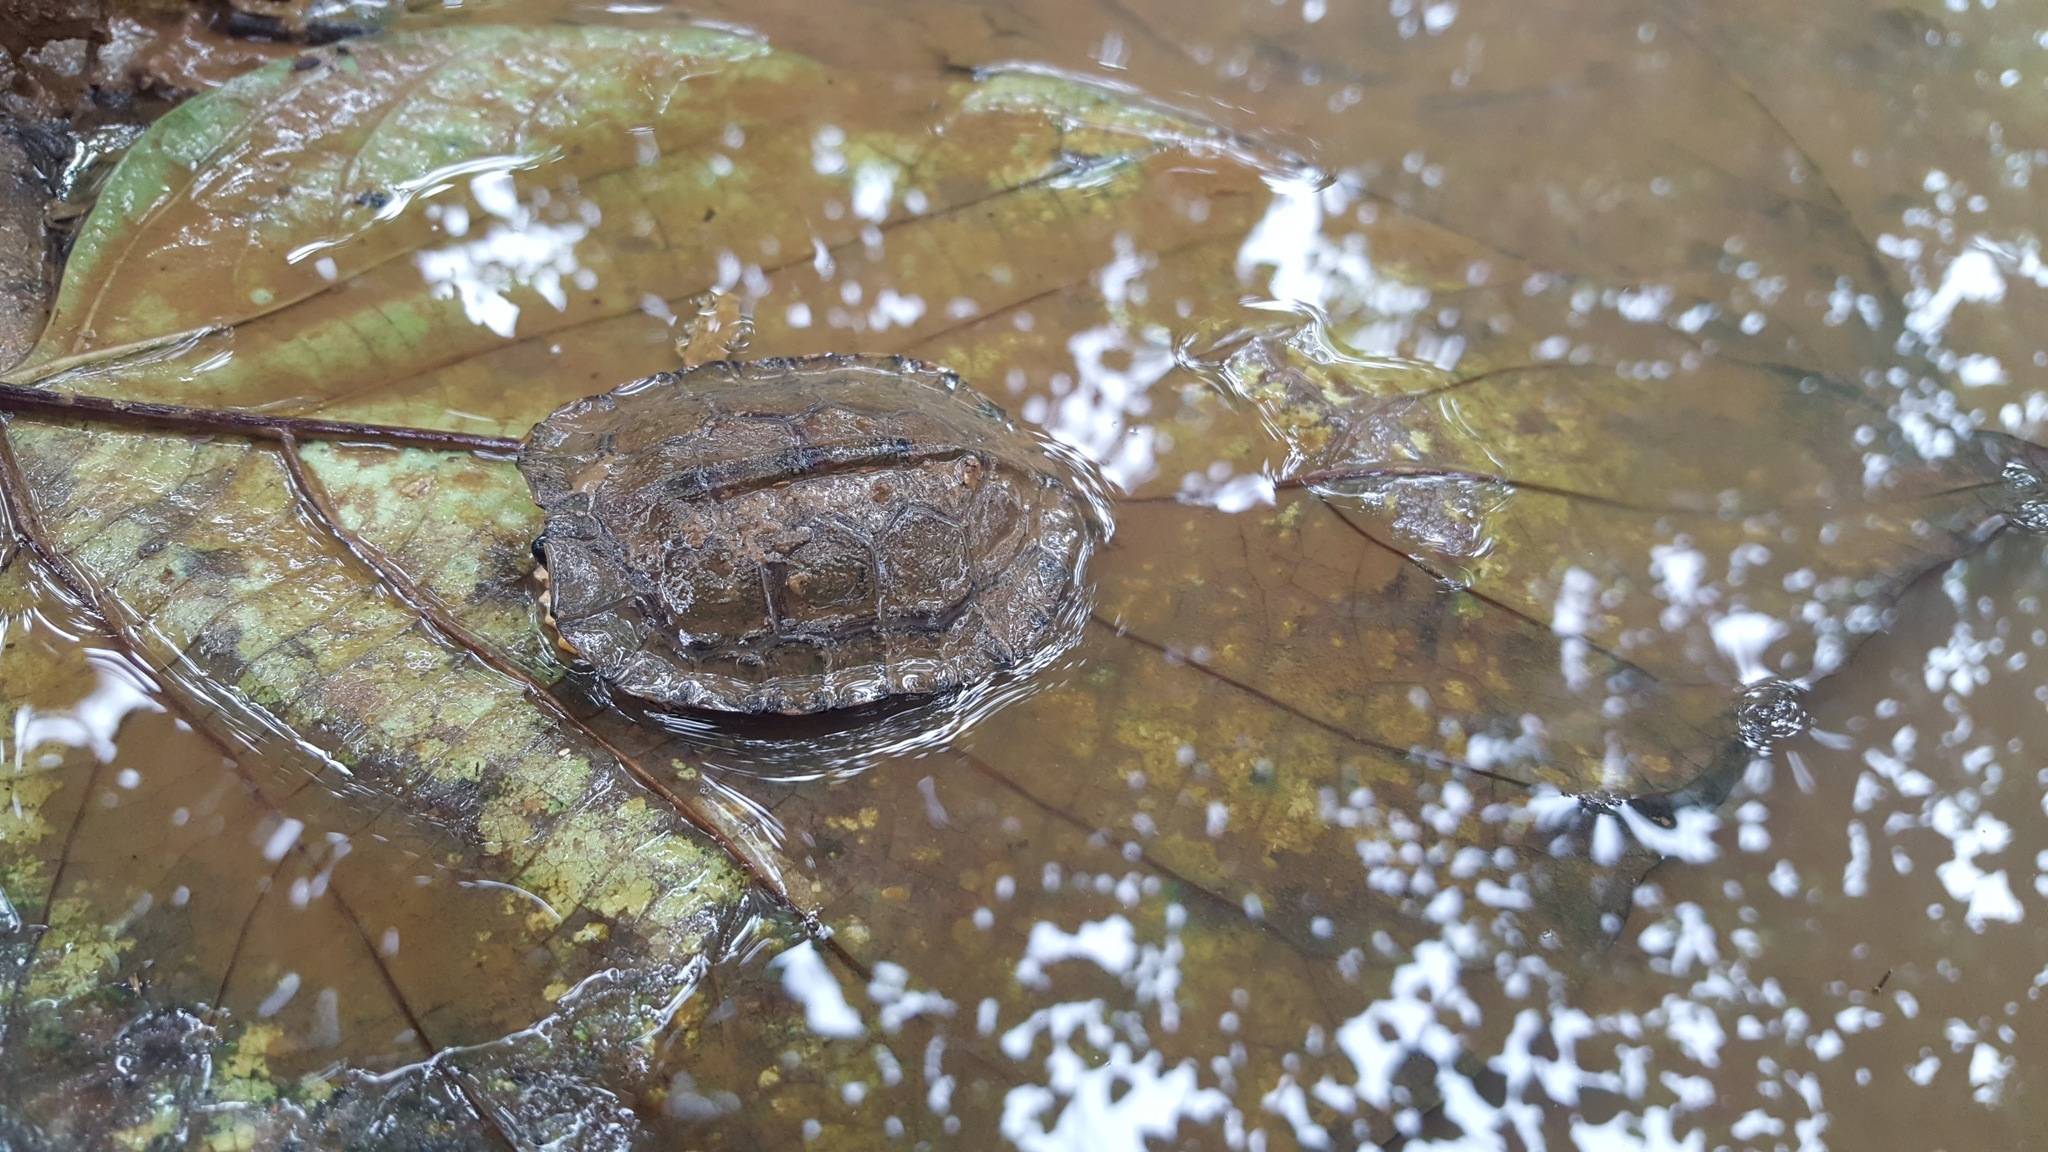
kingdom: Animalia
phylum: Chordata
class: Testudines
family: Geoemydidae
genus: Rhinoclemmys
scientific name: Rhinoclemmys funerea
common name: Black wood turtle
